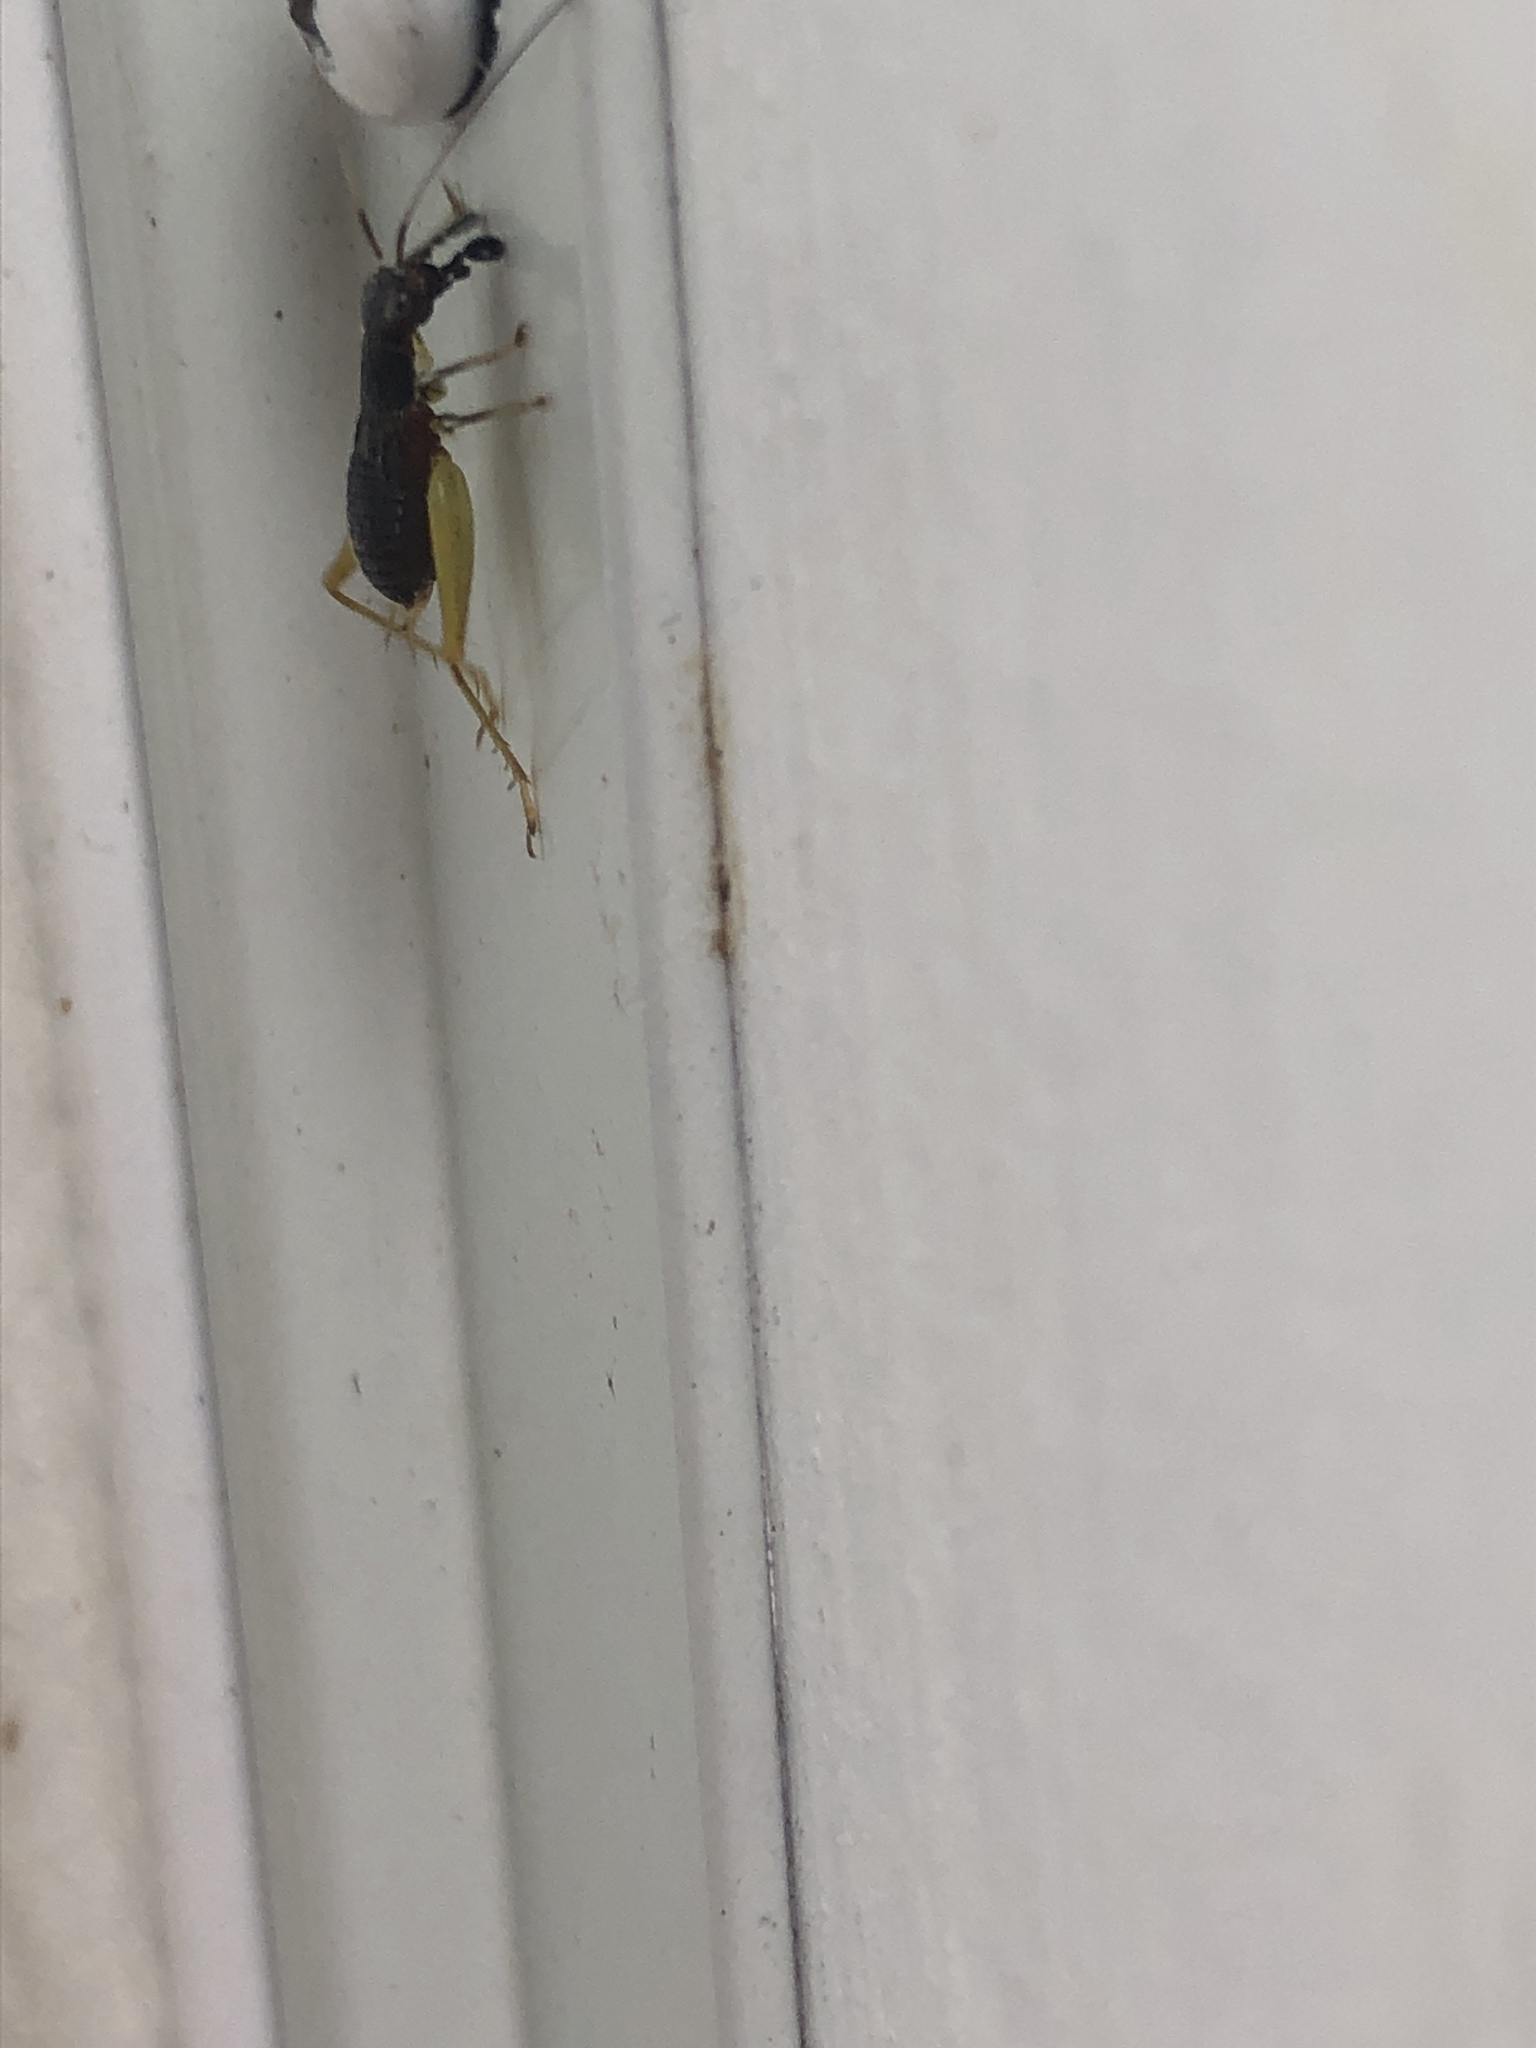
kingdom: Animalia
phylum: Arthropoda
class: Insecta
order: Orthoptera
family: Trigonidiidae
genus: Phyllopalpus
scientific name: Phyllopalpus pulchellus
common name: Handsome trig
